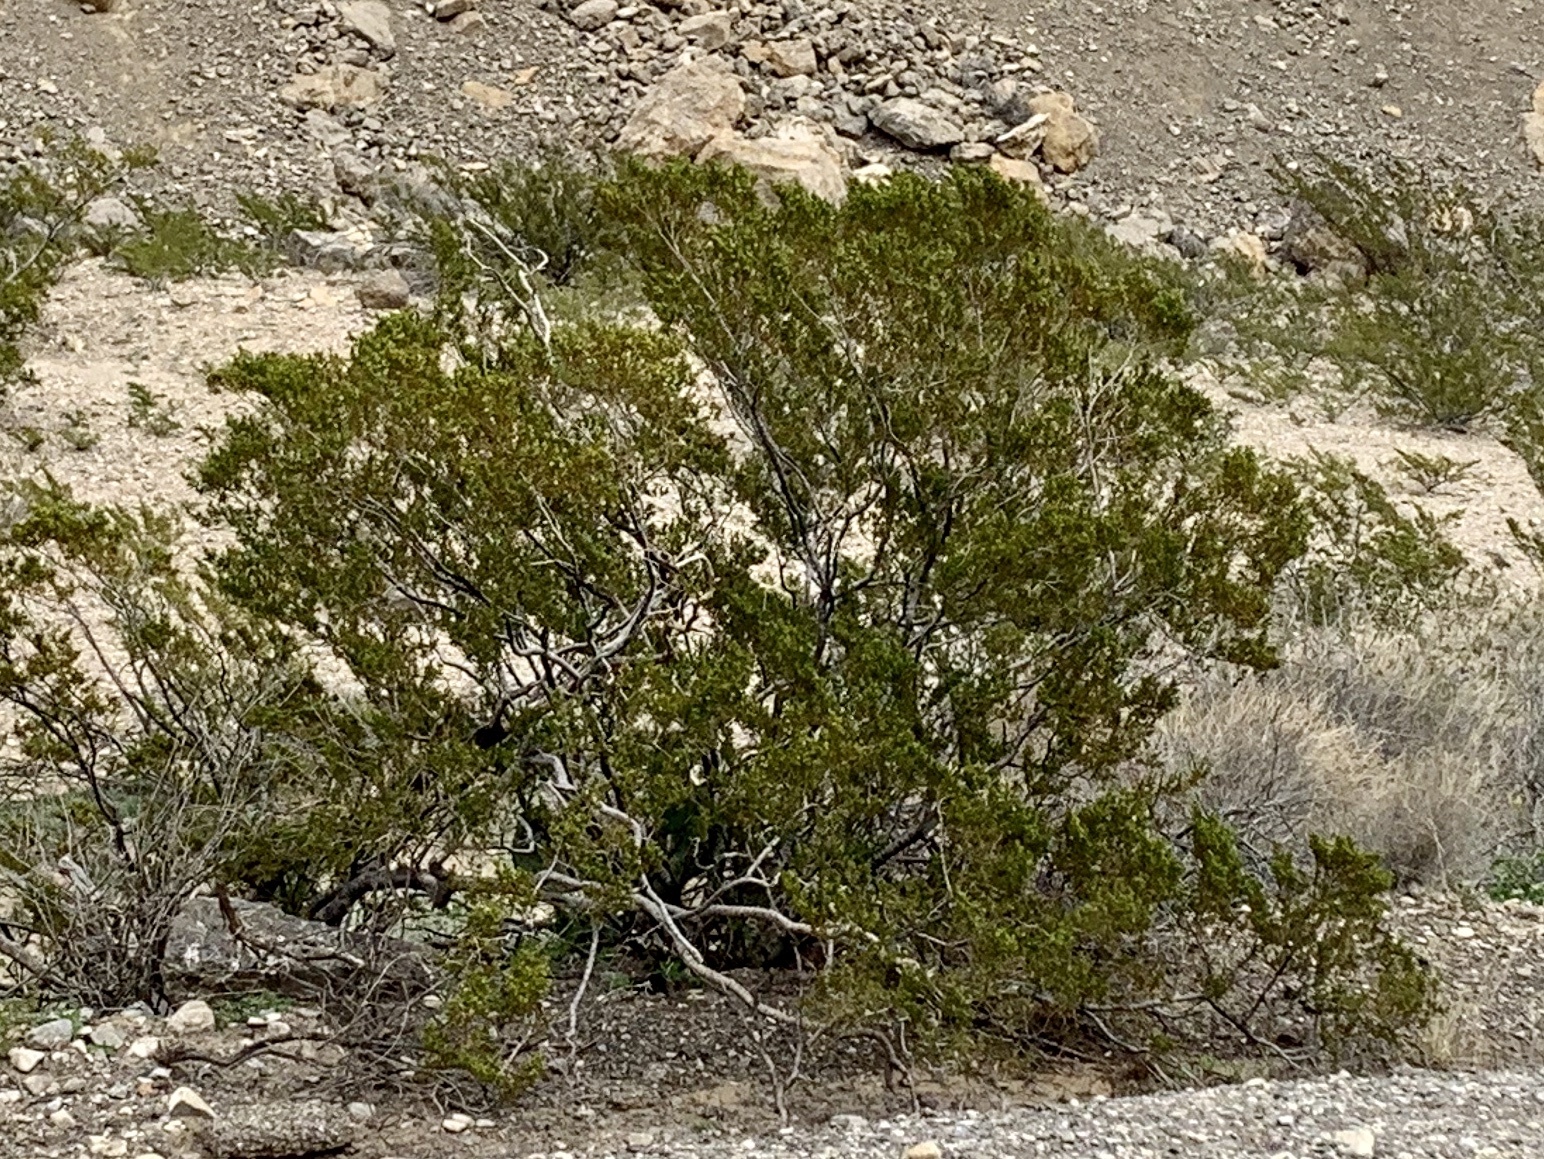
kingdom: Plantae
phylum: Tracheophyta
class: Magnoliopsida
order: Zygophyllales
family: Zygophyllaceae
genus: Larrea
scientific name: Larrea tridentata
